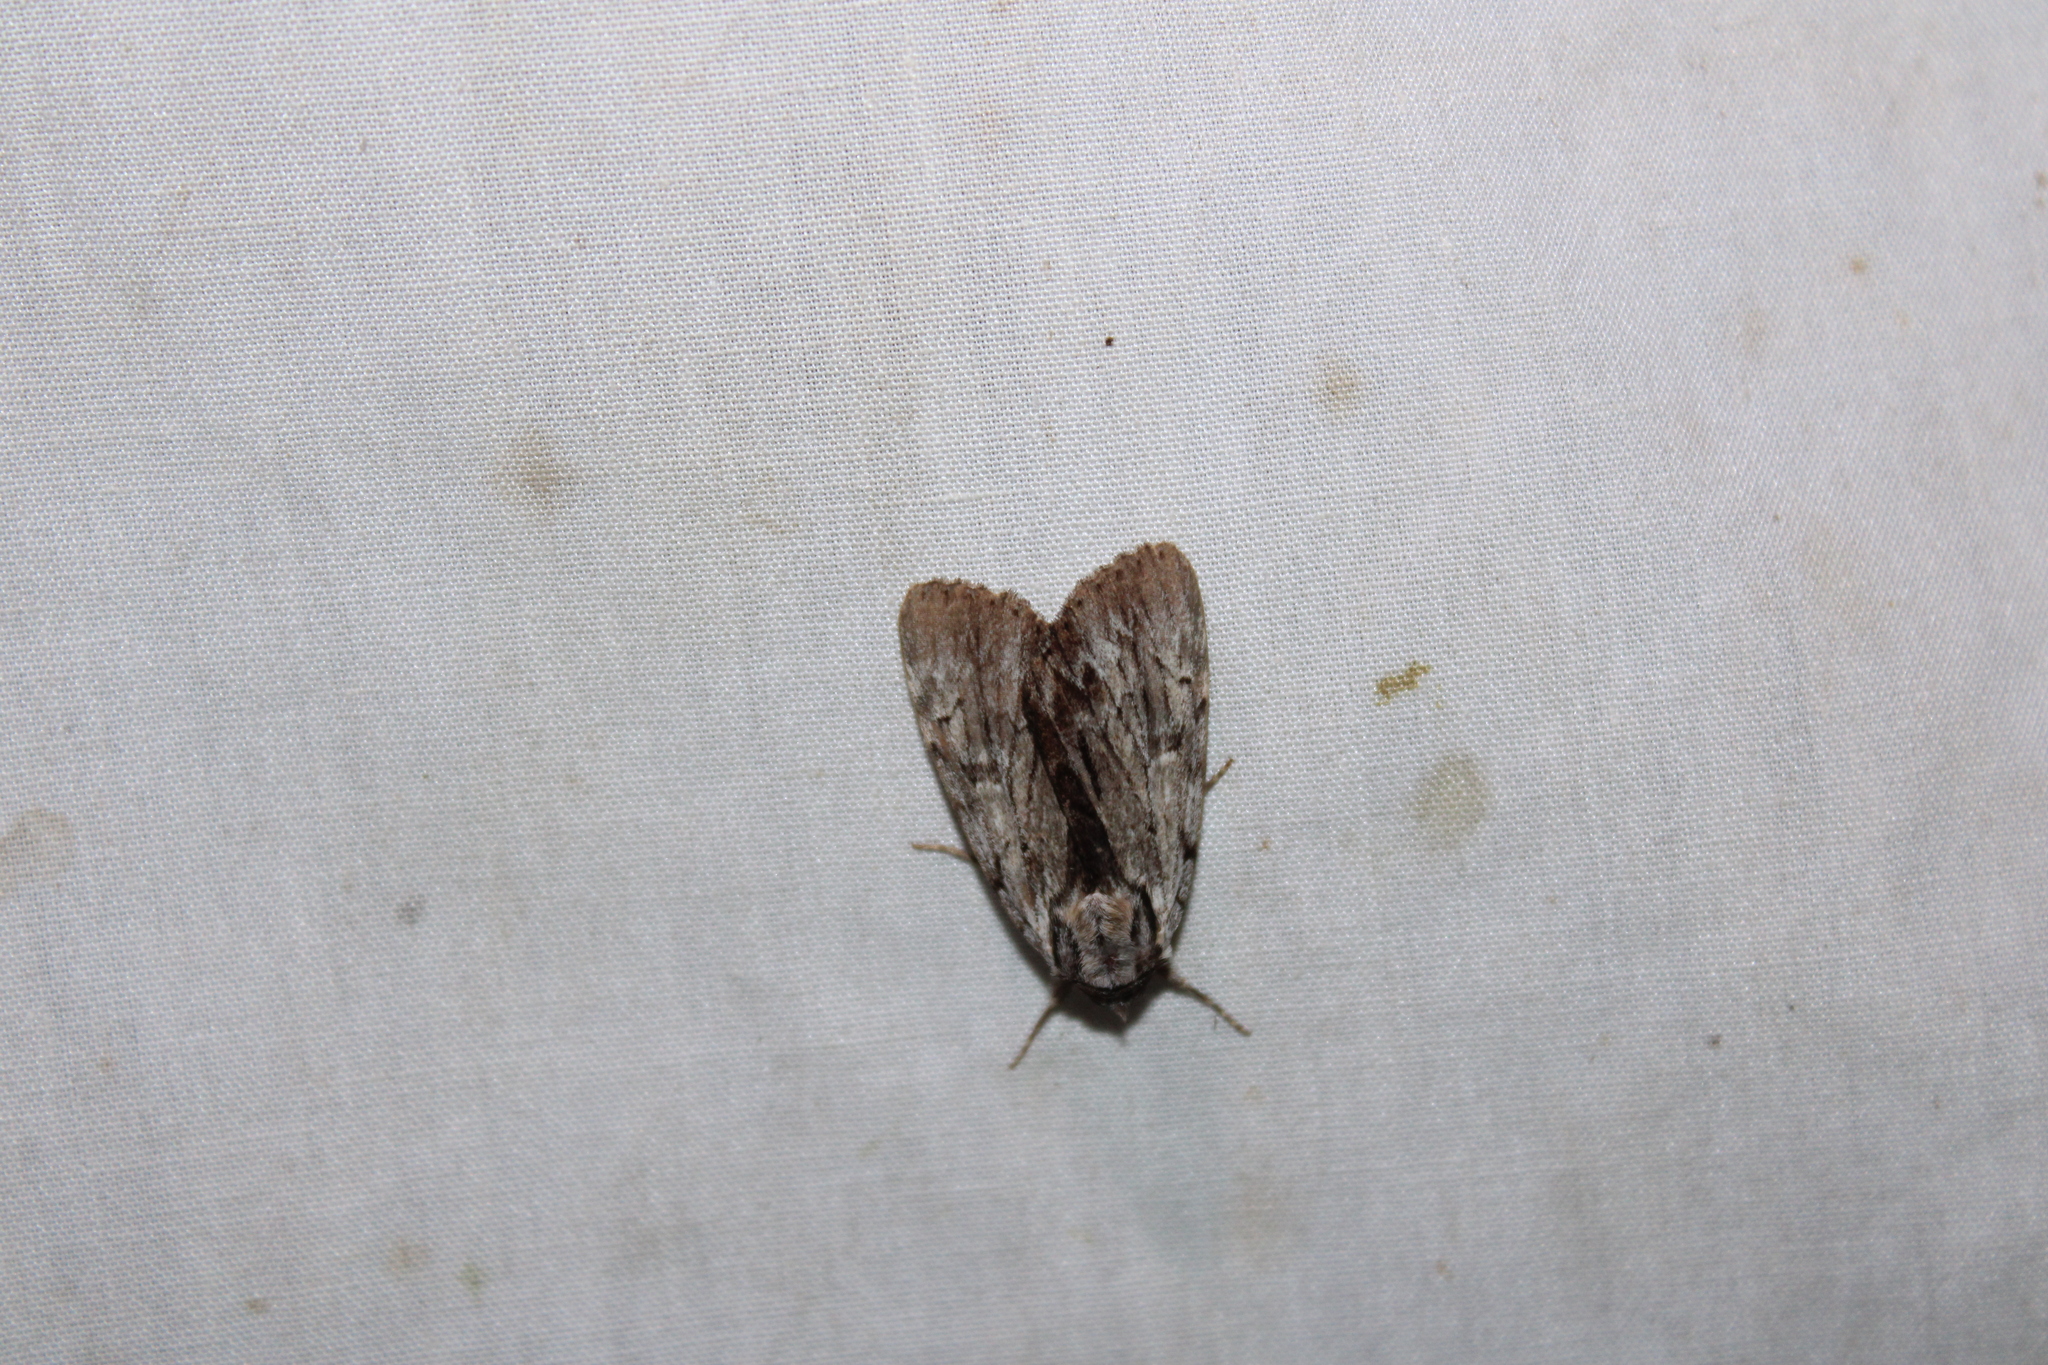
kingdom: Animalia
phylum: Arthropoda
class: Insecta
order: Lepidoptera
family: Erebidae
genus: Catocala
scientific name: Catocala gracilis
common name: Graceful underwing
